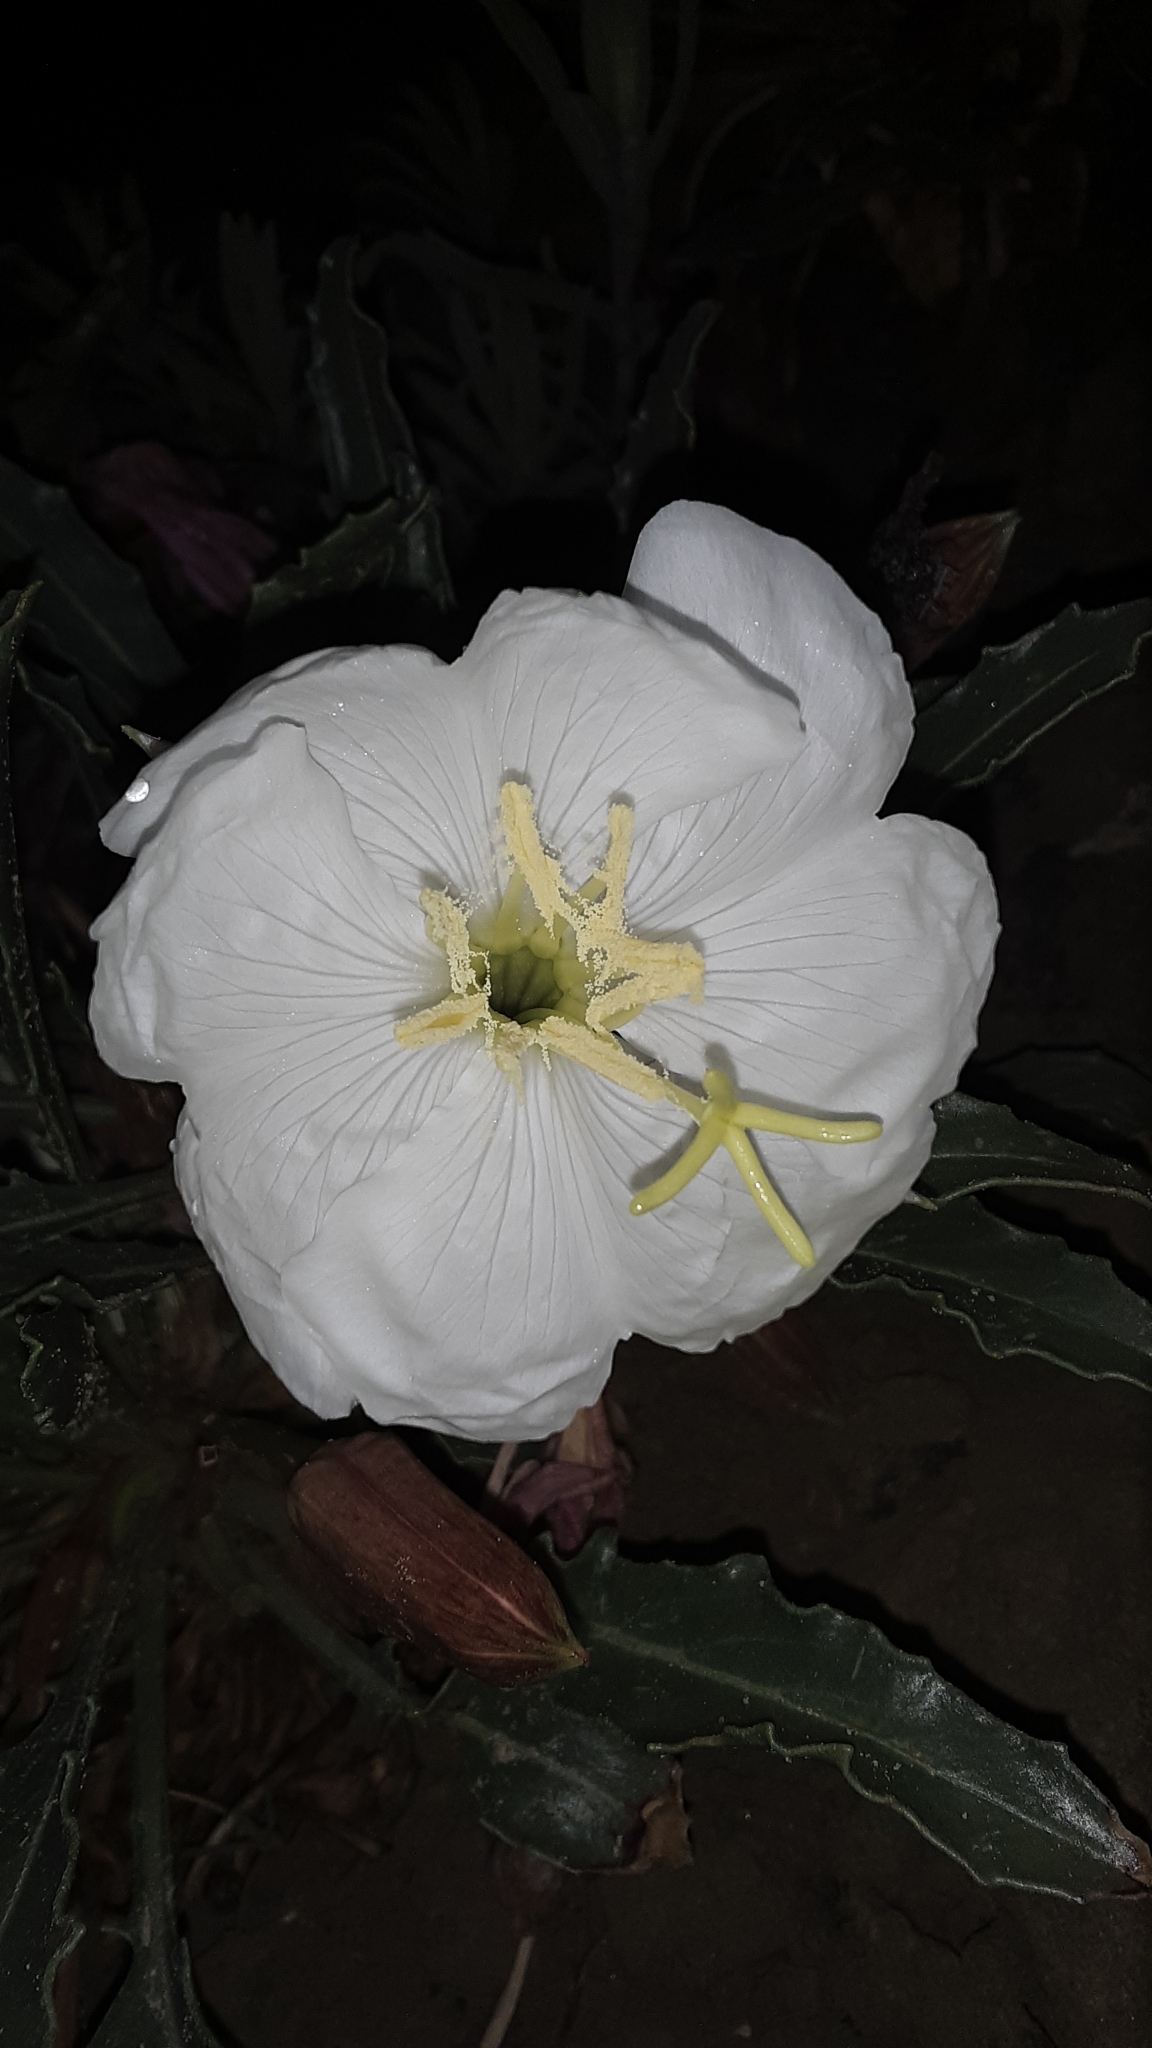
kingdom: Plantae
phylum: Tracheophyta
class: Magnoliopsida
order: Myrtales
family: Onagraceae
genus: Oenothera
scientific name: Oenothera cespitosa
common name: Tufted evening-primrose
